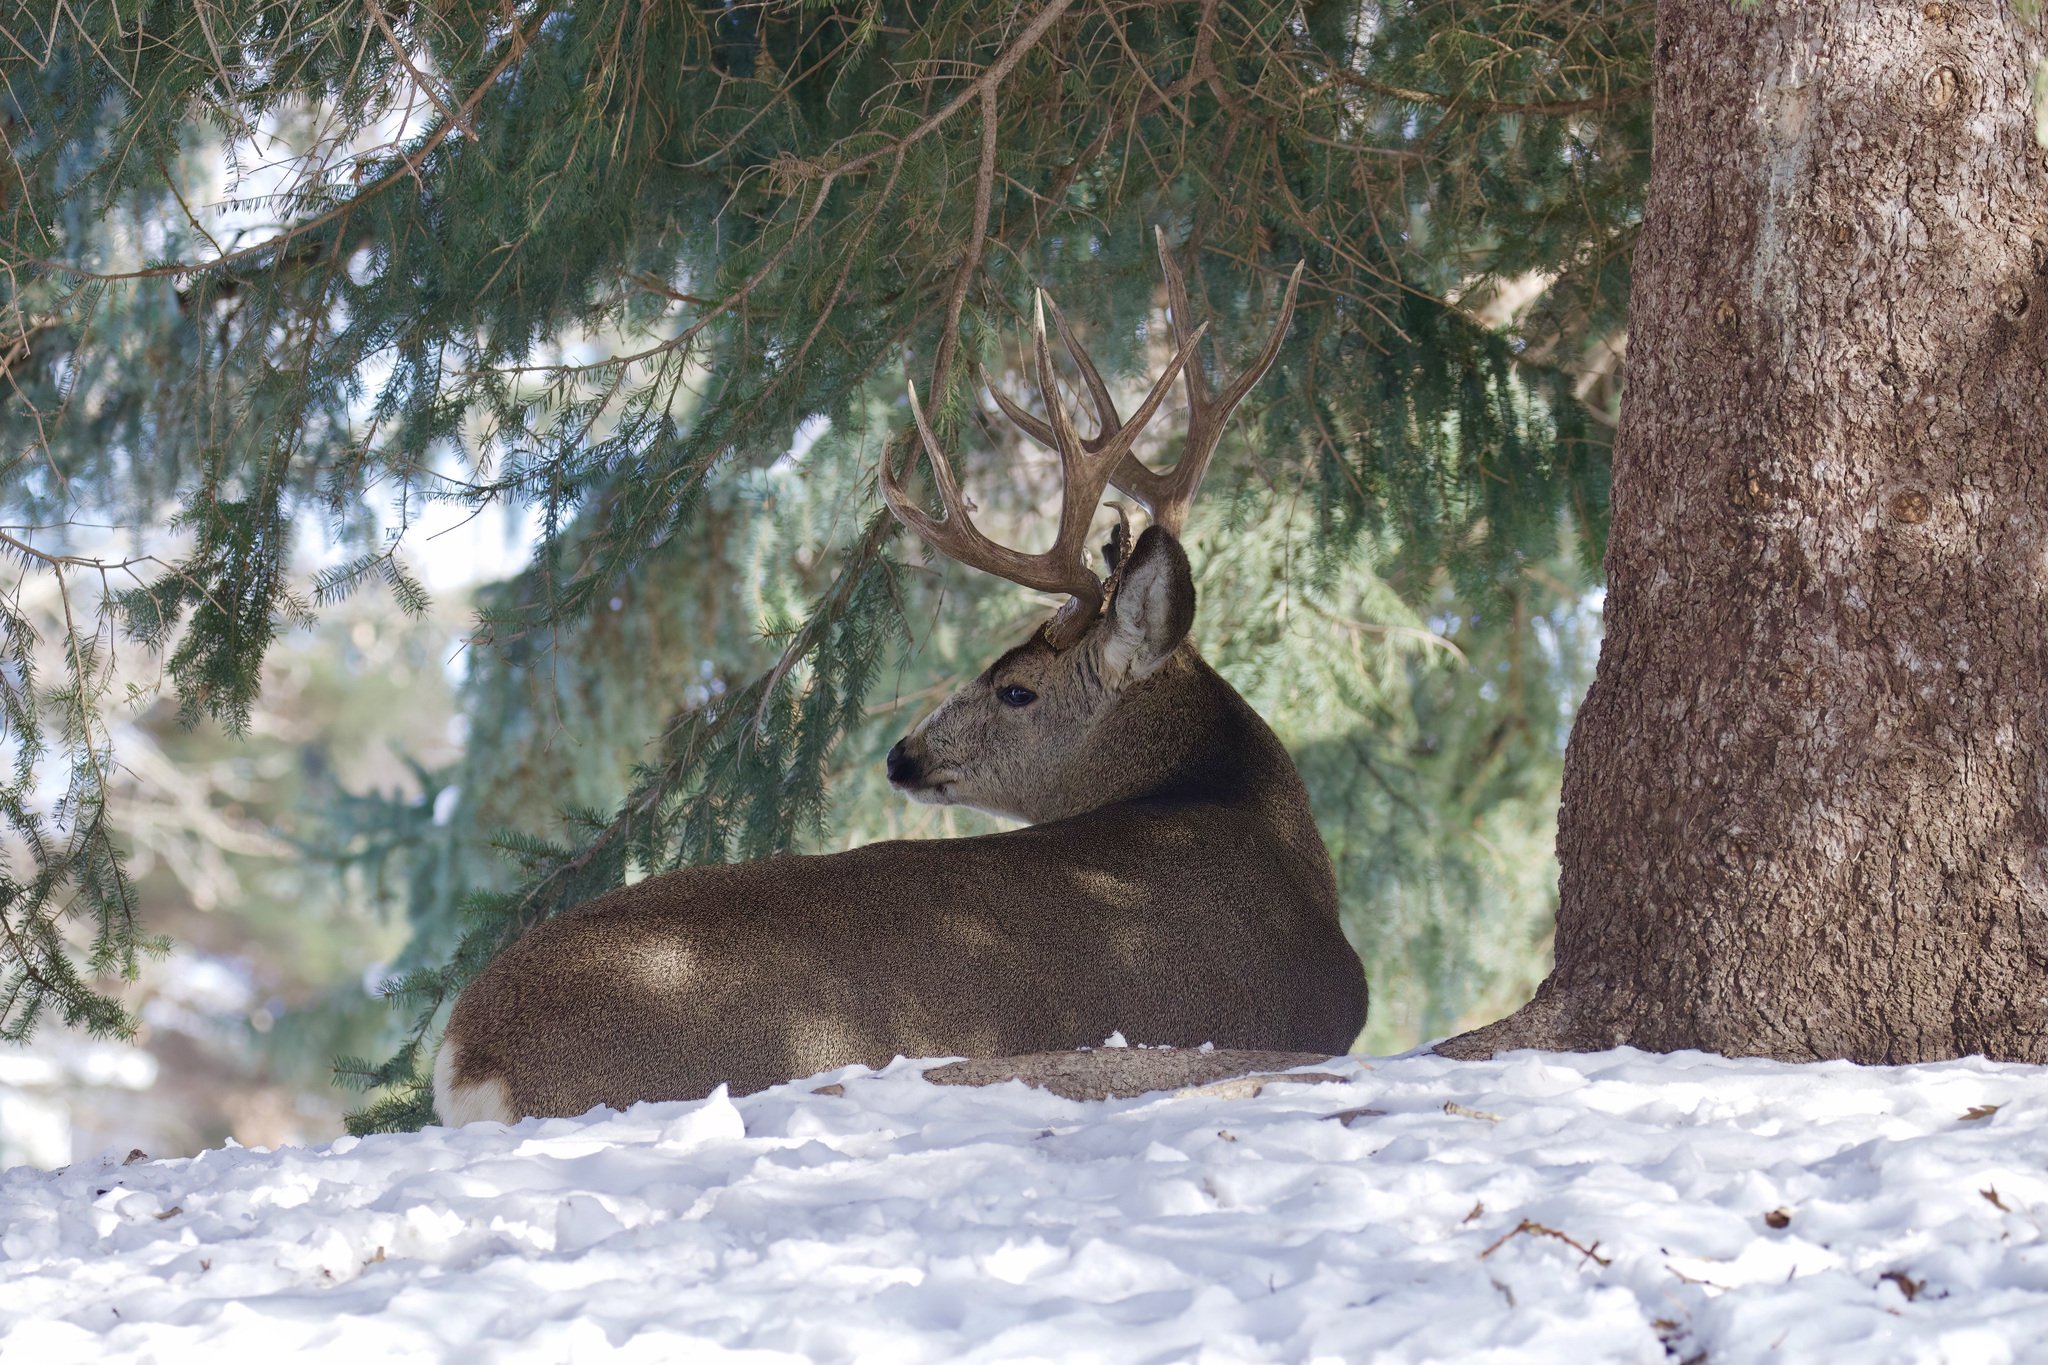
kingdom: Animalia
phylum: Chordata
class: Mammalia
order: Artiodactyla
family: Cervidae
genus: Odocoileus
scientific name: Odocoileus hemionus
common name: Mule deer
